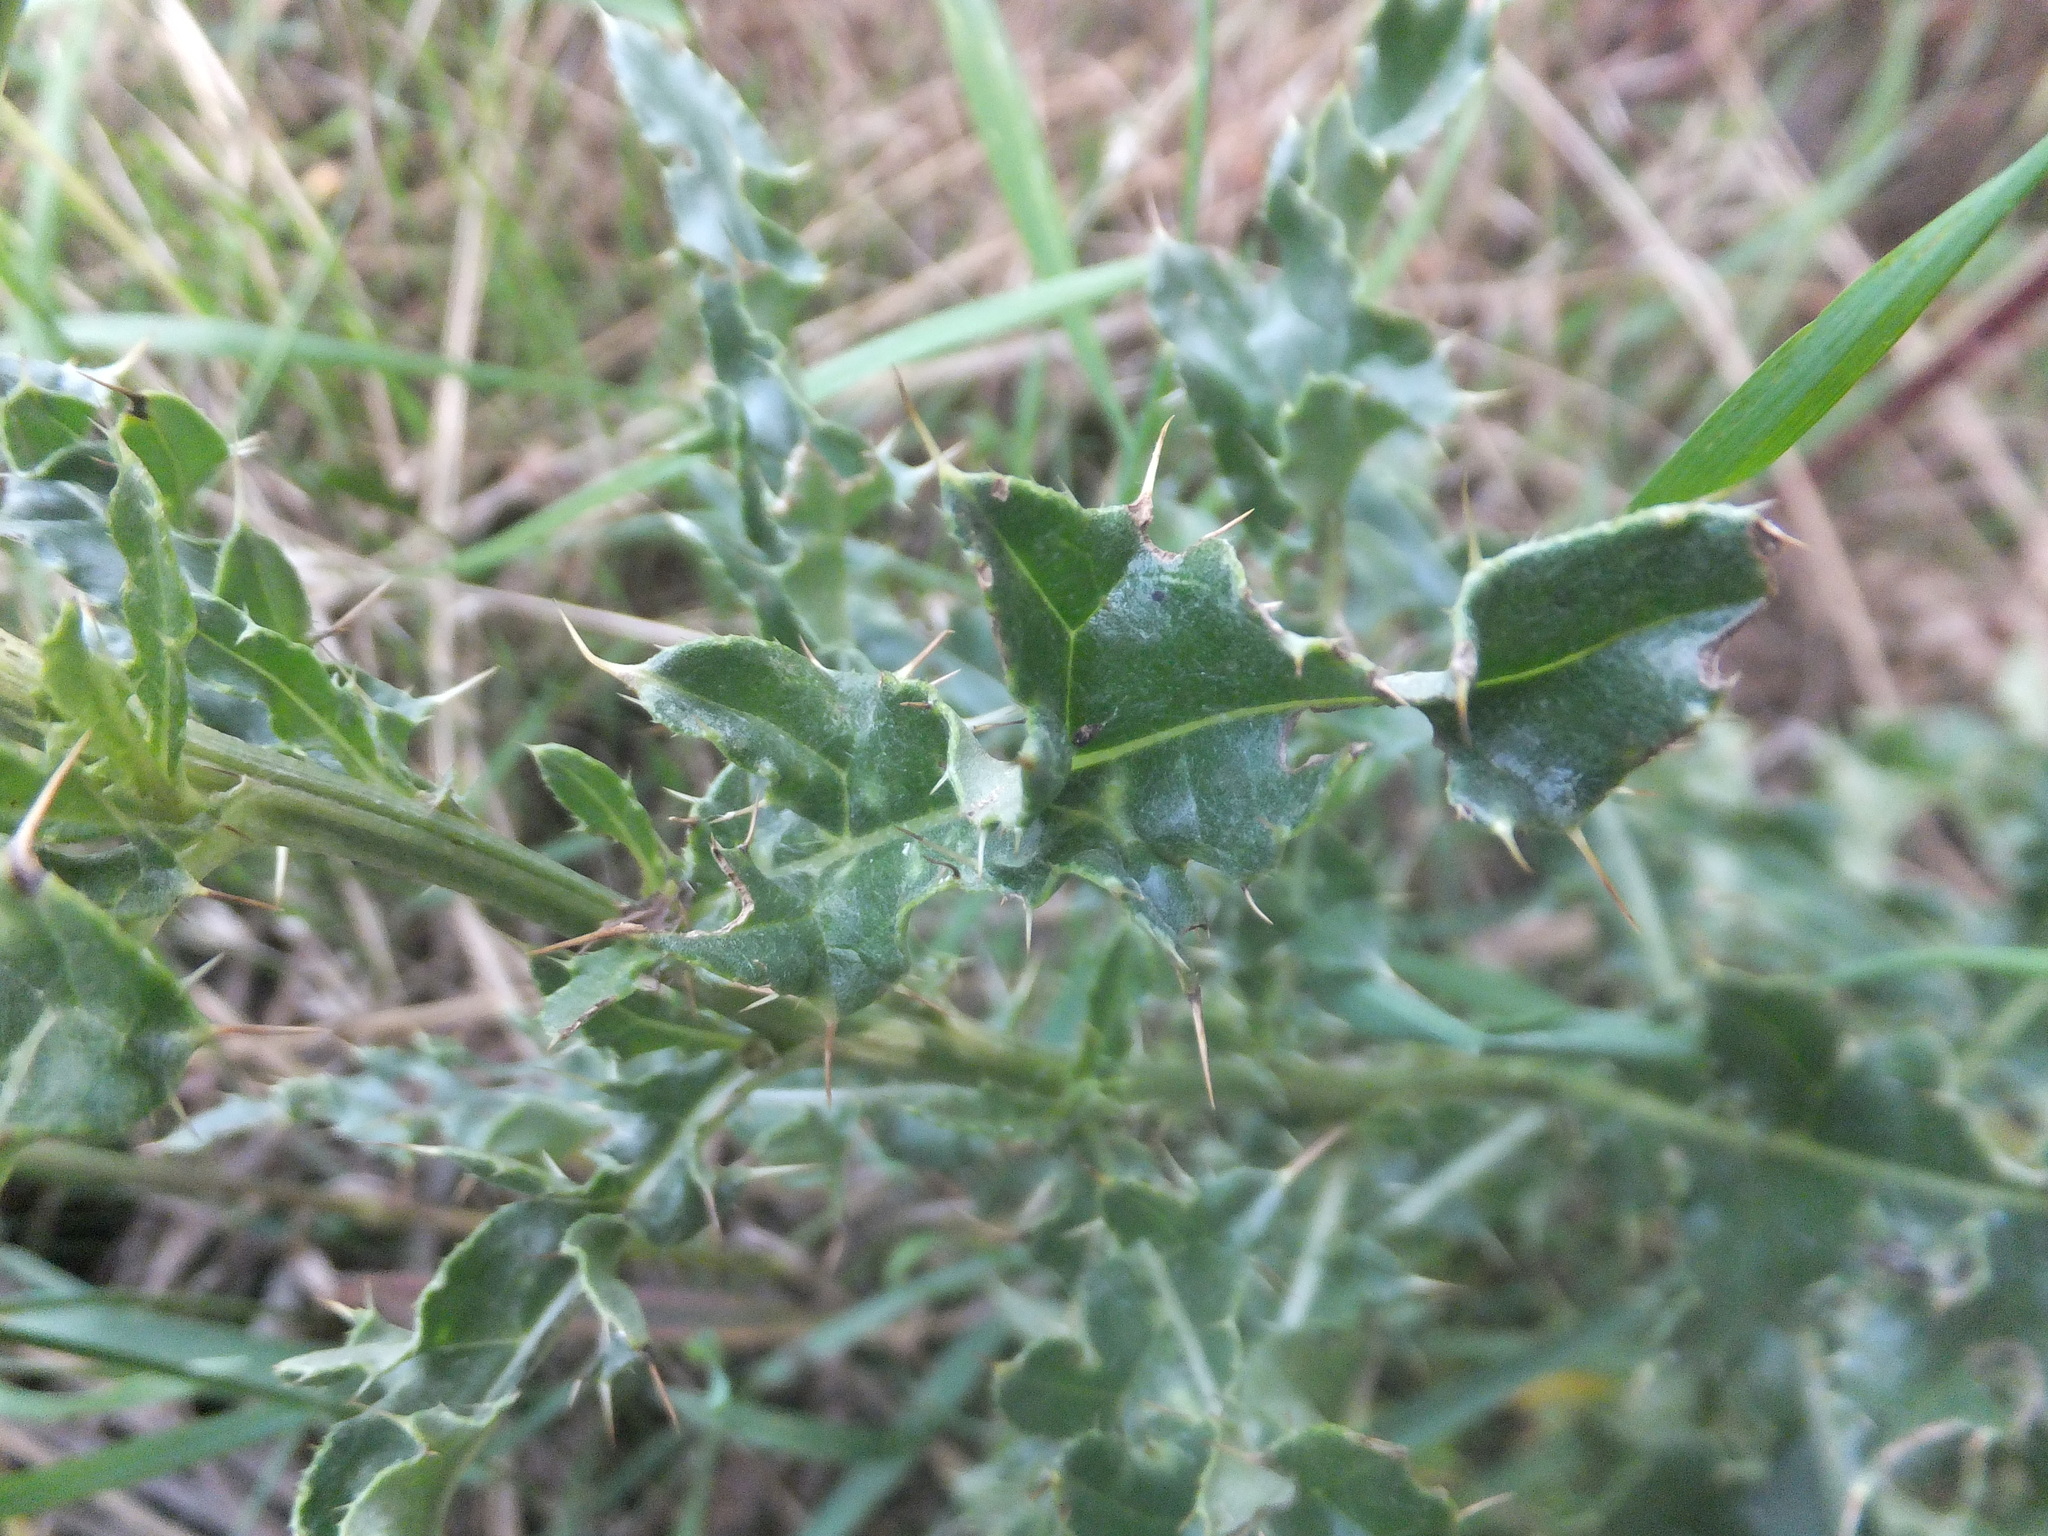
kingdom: Plantae
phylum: Tracheophyta
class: Magnoliopsida
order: Asterales
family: Asteraceae
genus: Cirsium
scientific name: Cirsium arvense
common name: Creeping thistle
